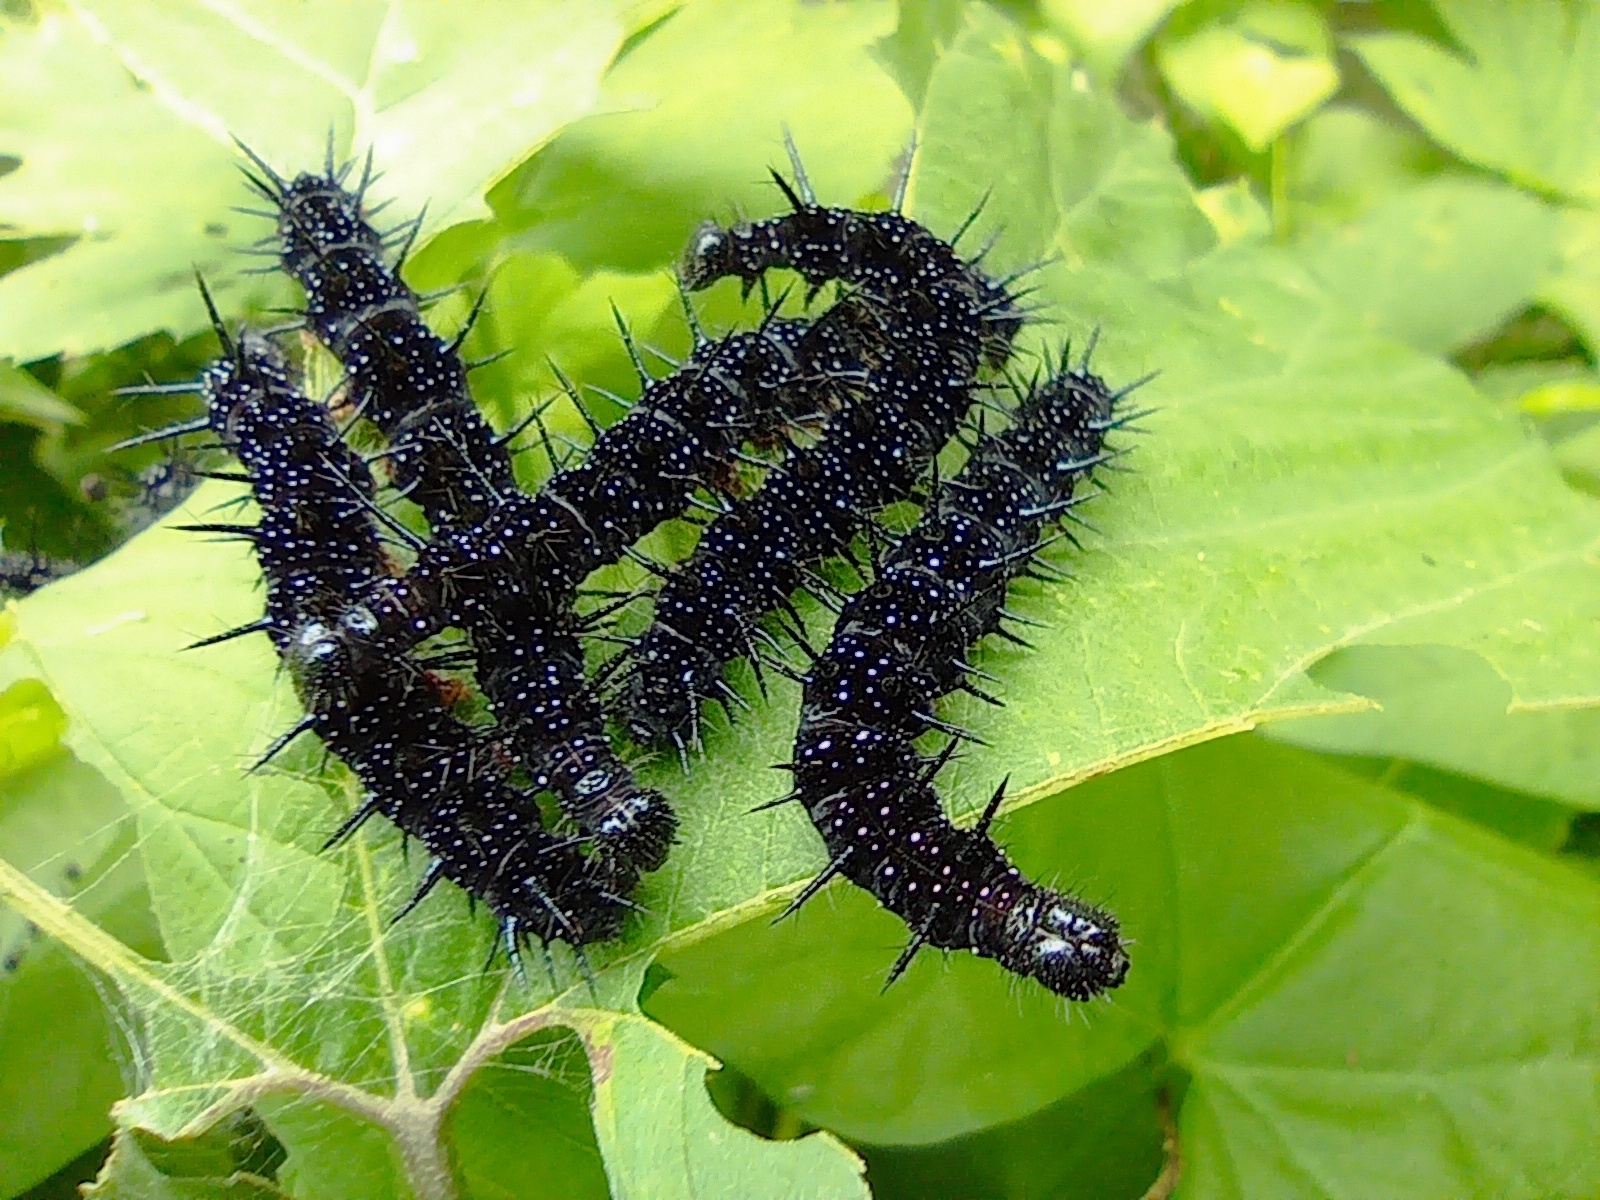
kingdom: Animalia
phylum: Arthropoda
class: Insecta
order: Lepidoptera
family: Nymphalidae
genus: Aglais
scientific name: Aglais io
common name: Peacock
